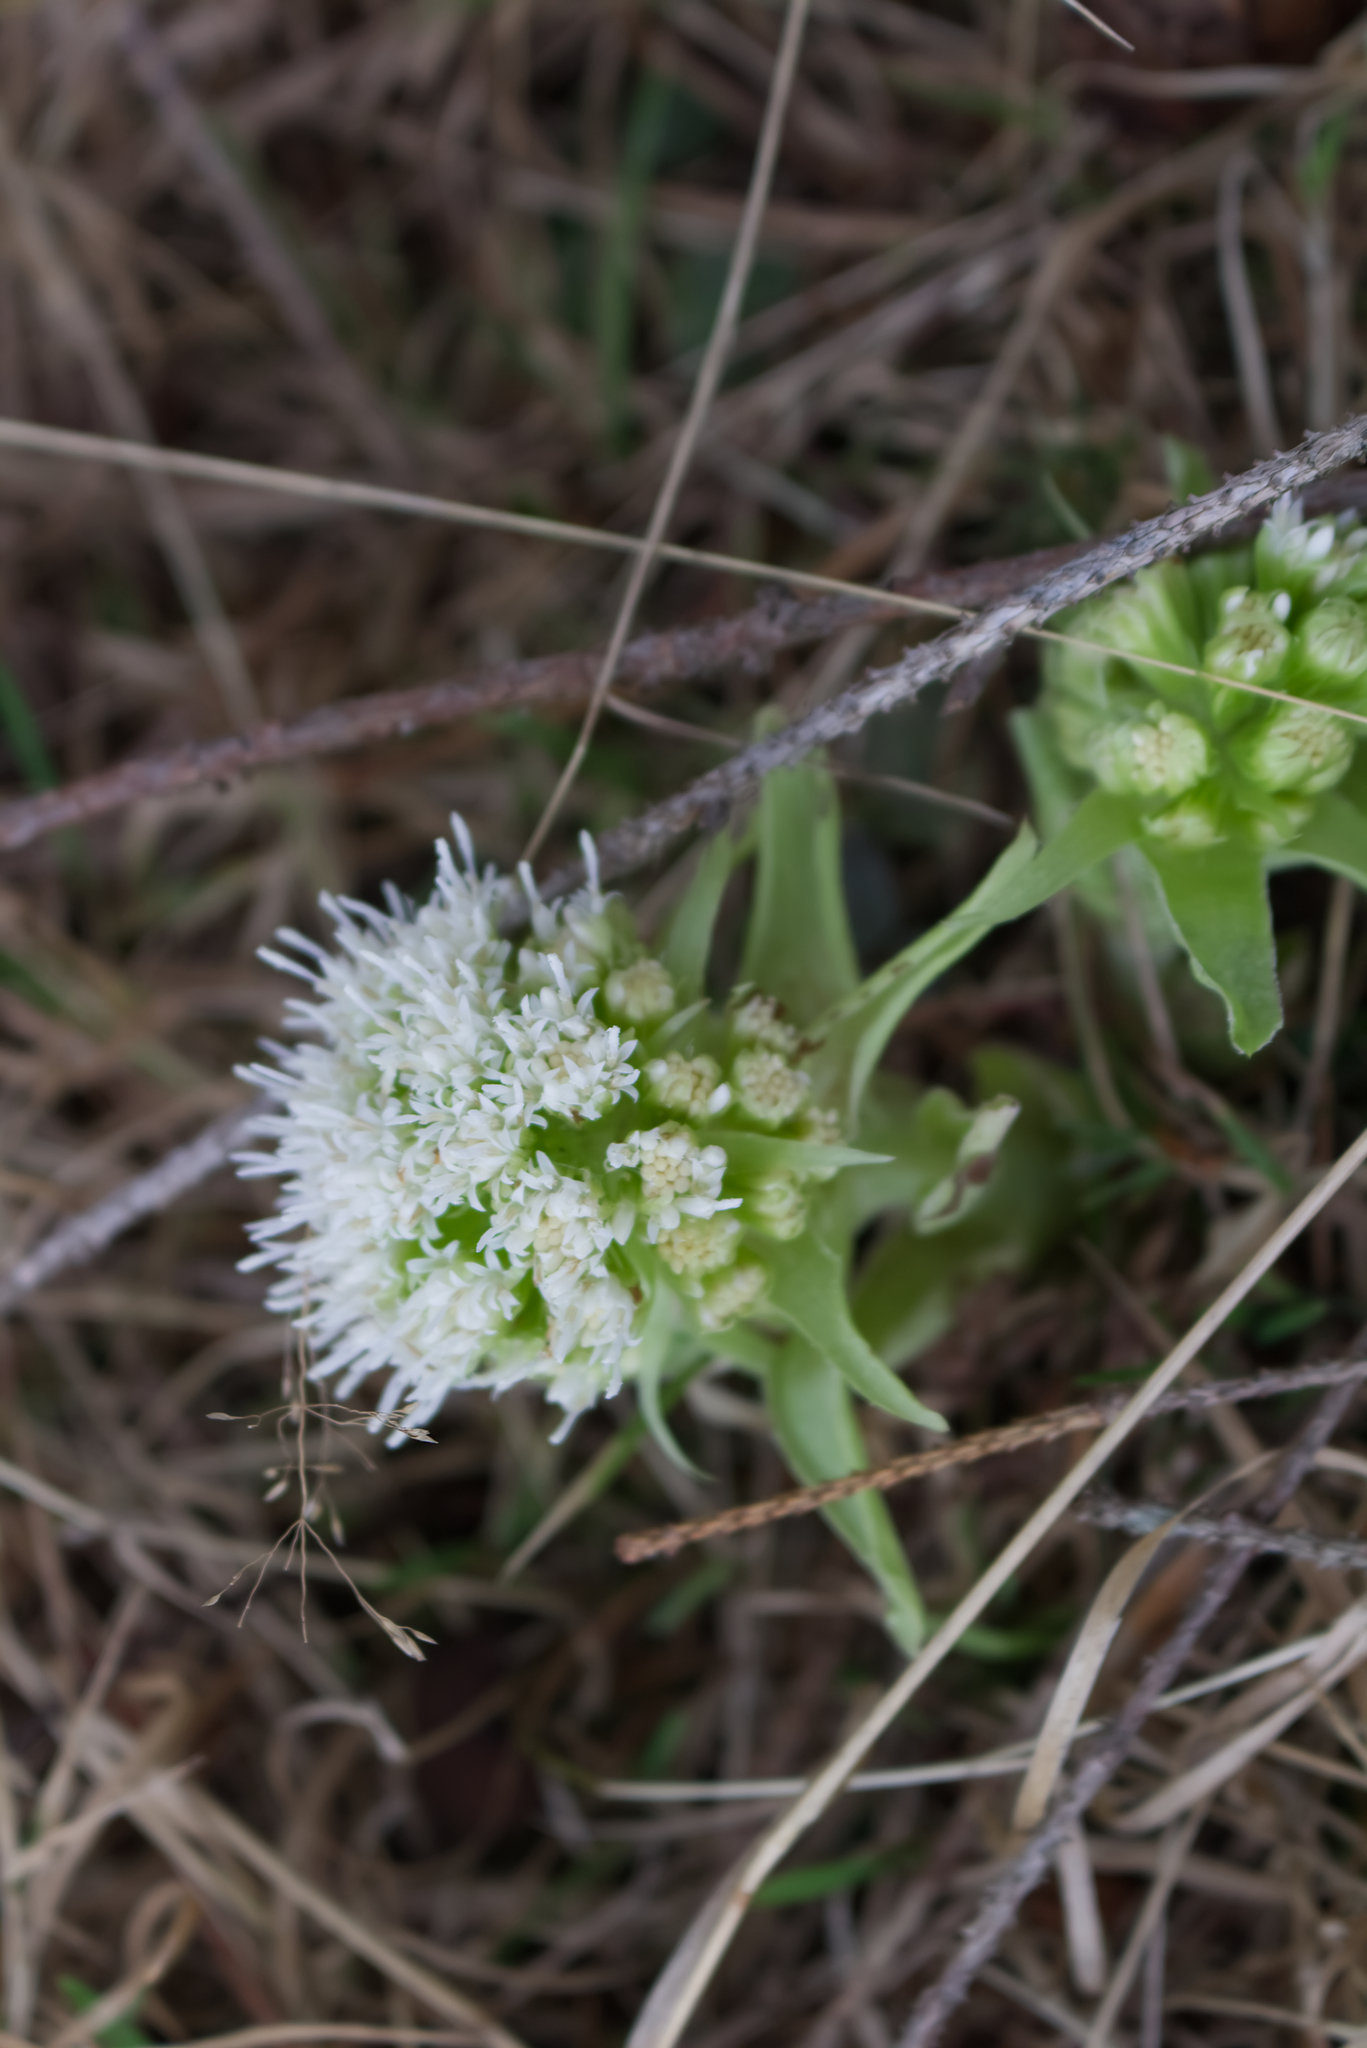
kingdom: Plantae
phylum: Tracheophyta
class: Magnoliopsida
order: Asterales
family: Asteraceae
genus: Petasites
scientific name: Petasites albus
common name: White butterbur
